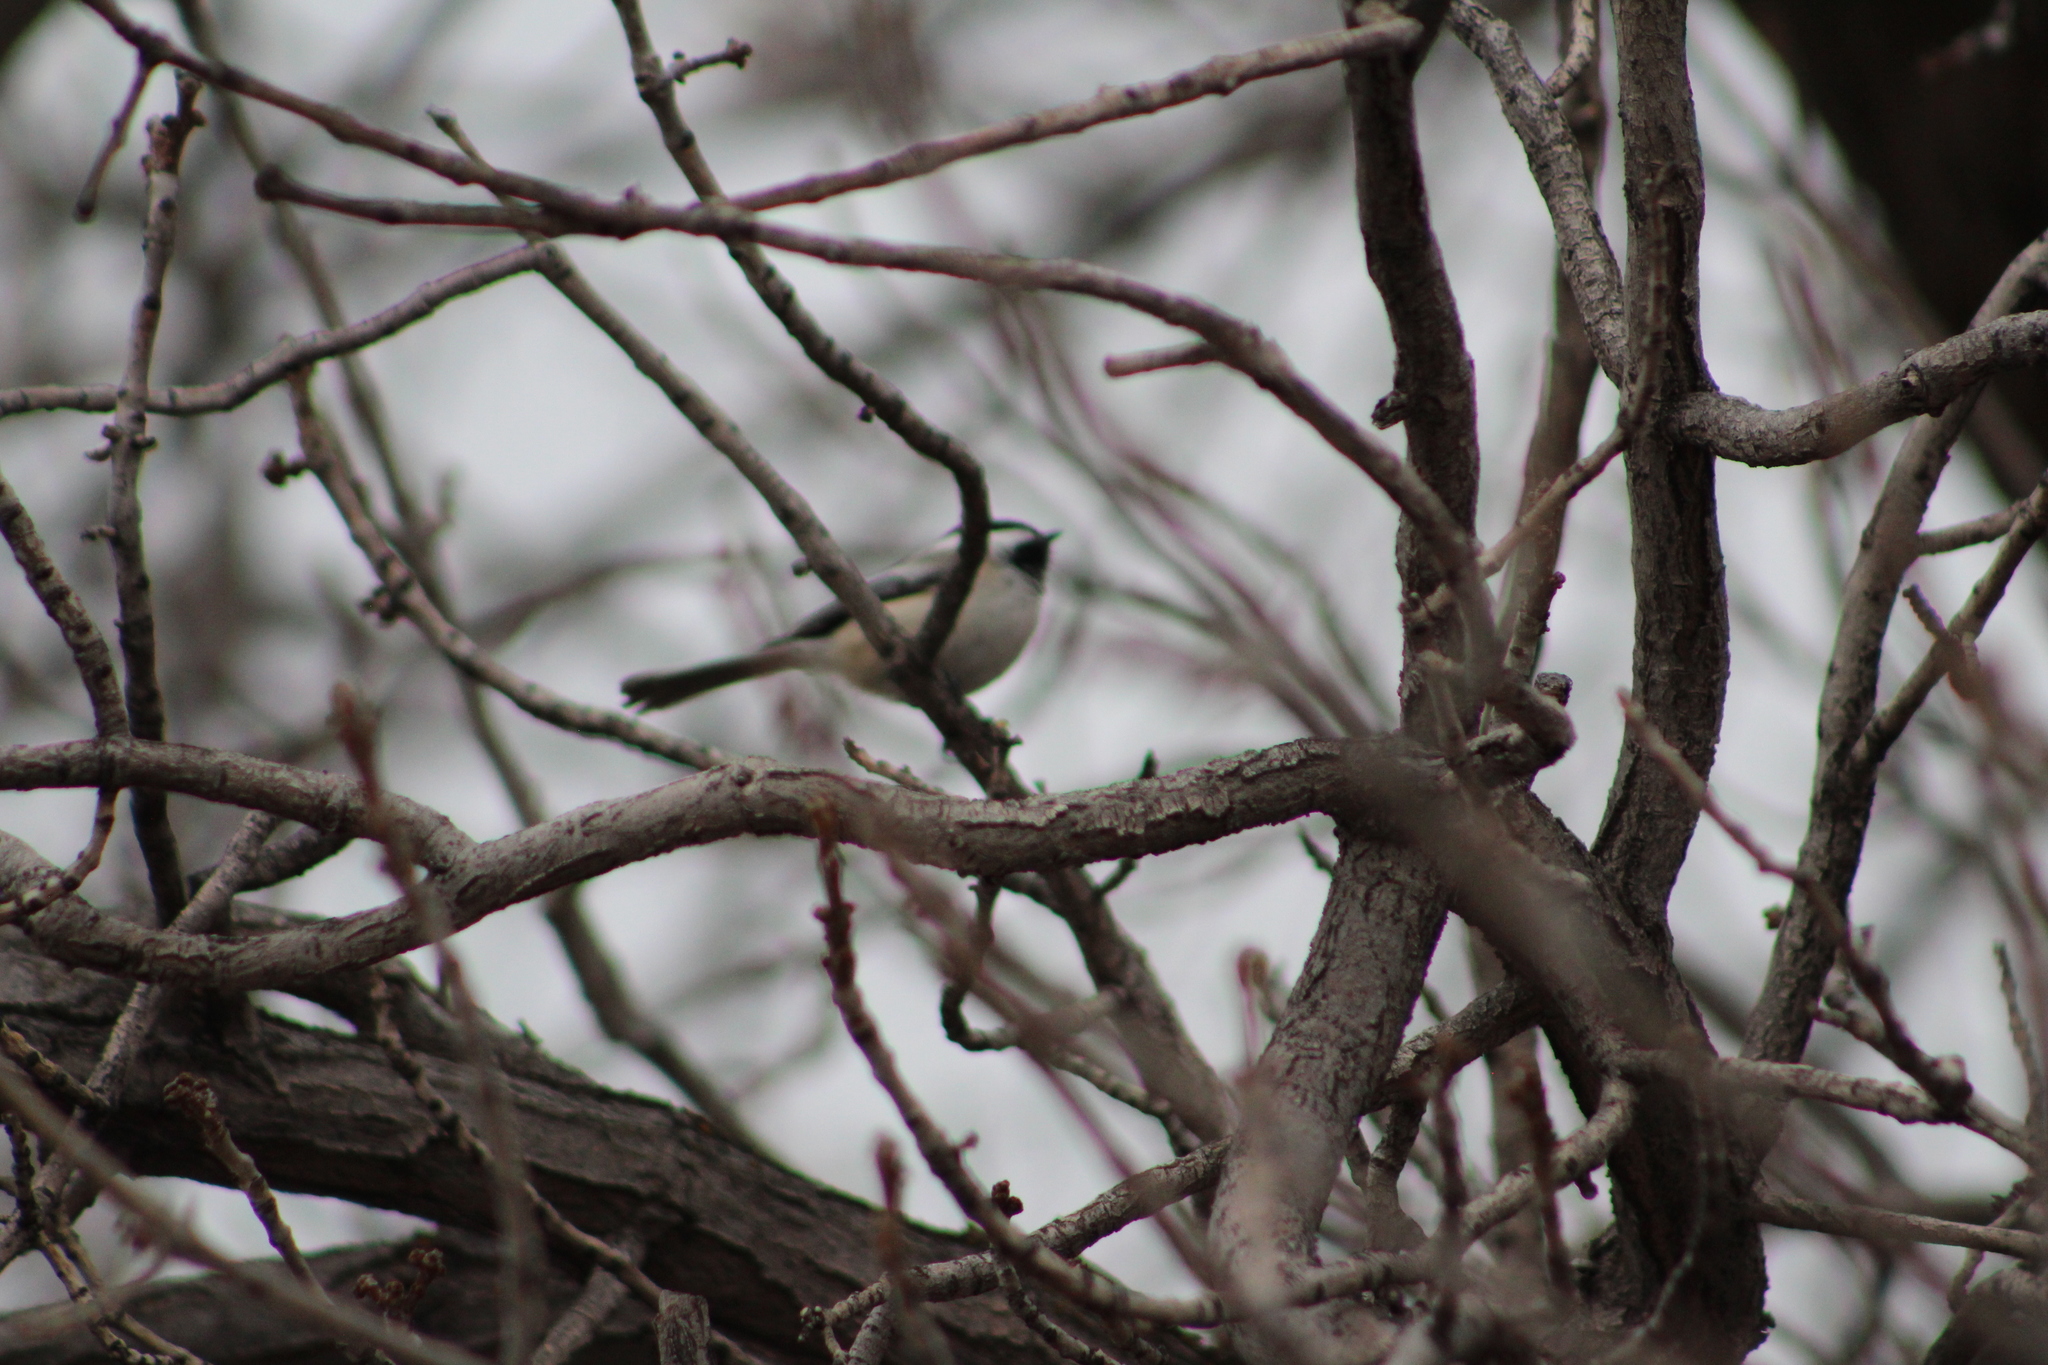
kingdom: Animalia
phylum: Chordata
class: Aves
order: Passeriformes
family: Paridae
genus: Poecile
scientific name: Poecile atricapillus
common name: Black-capped chickadee
